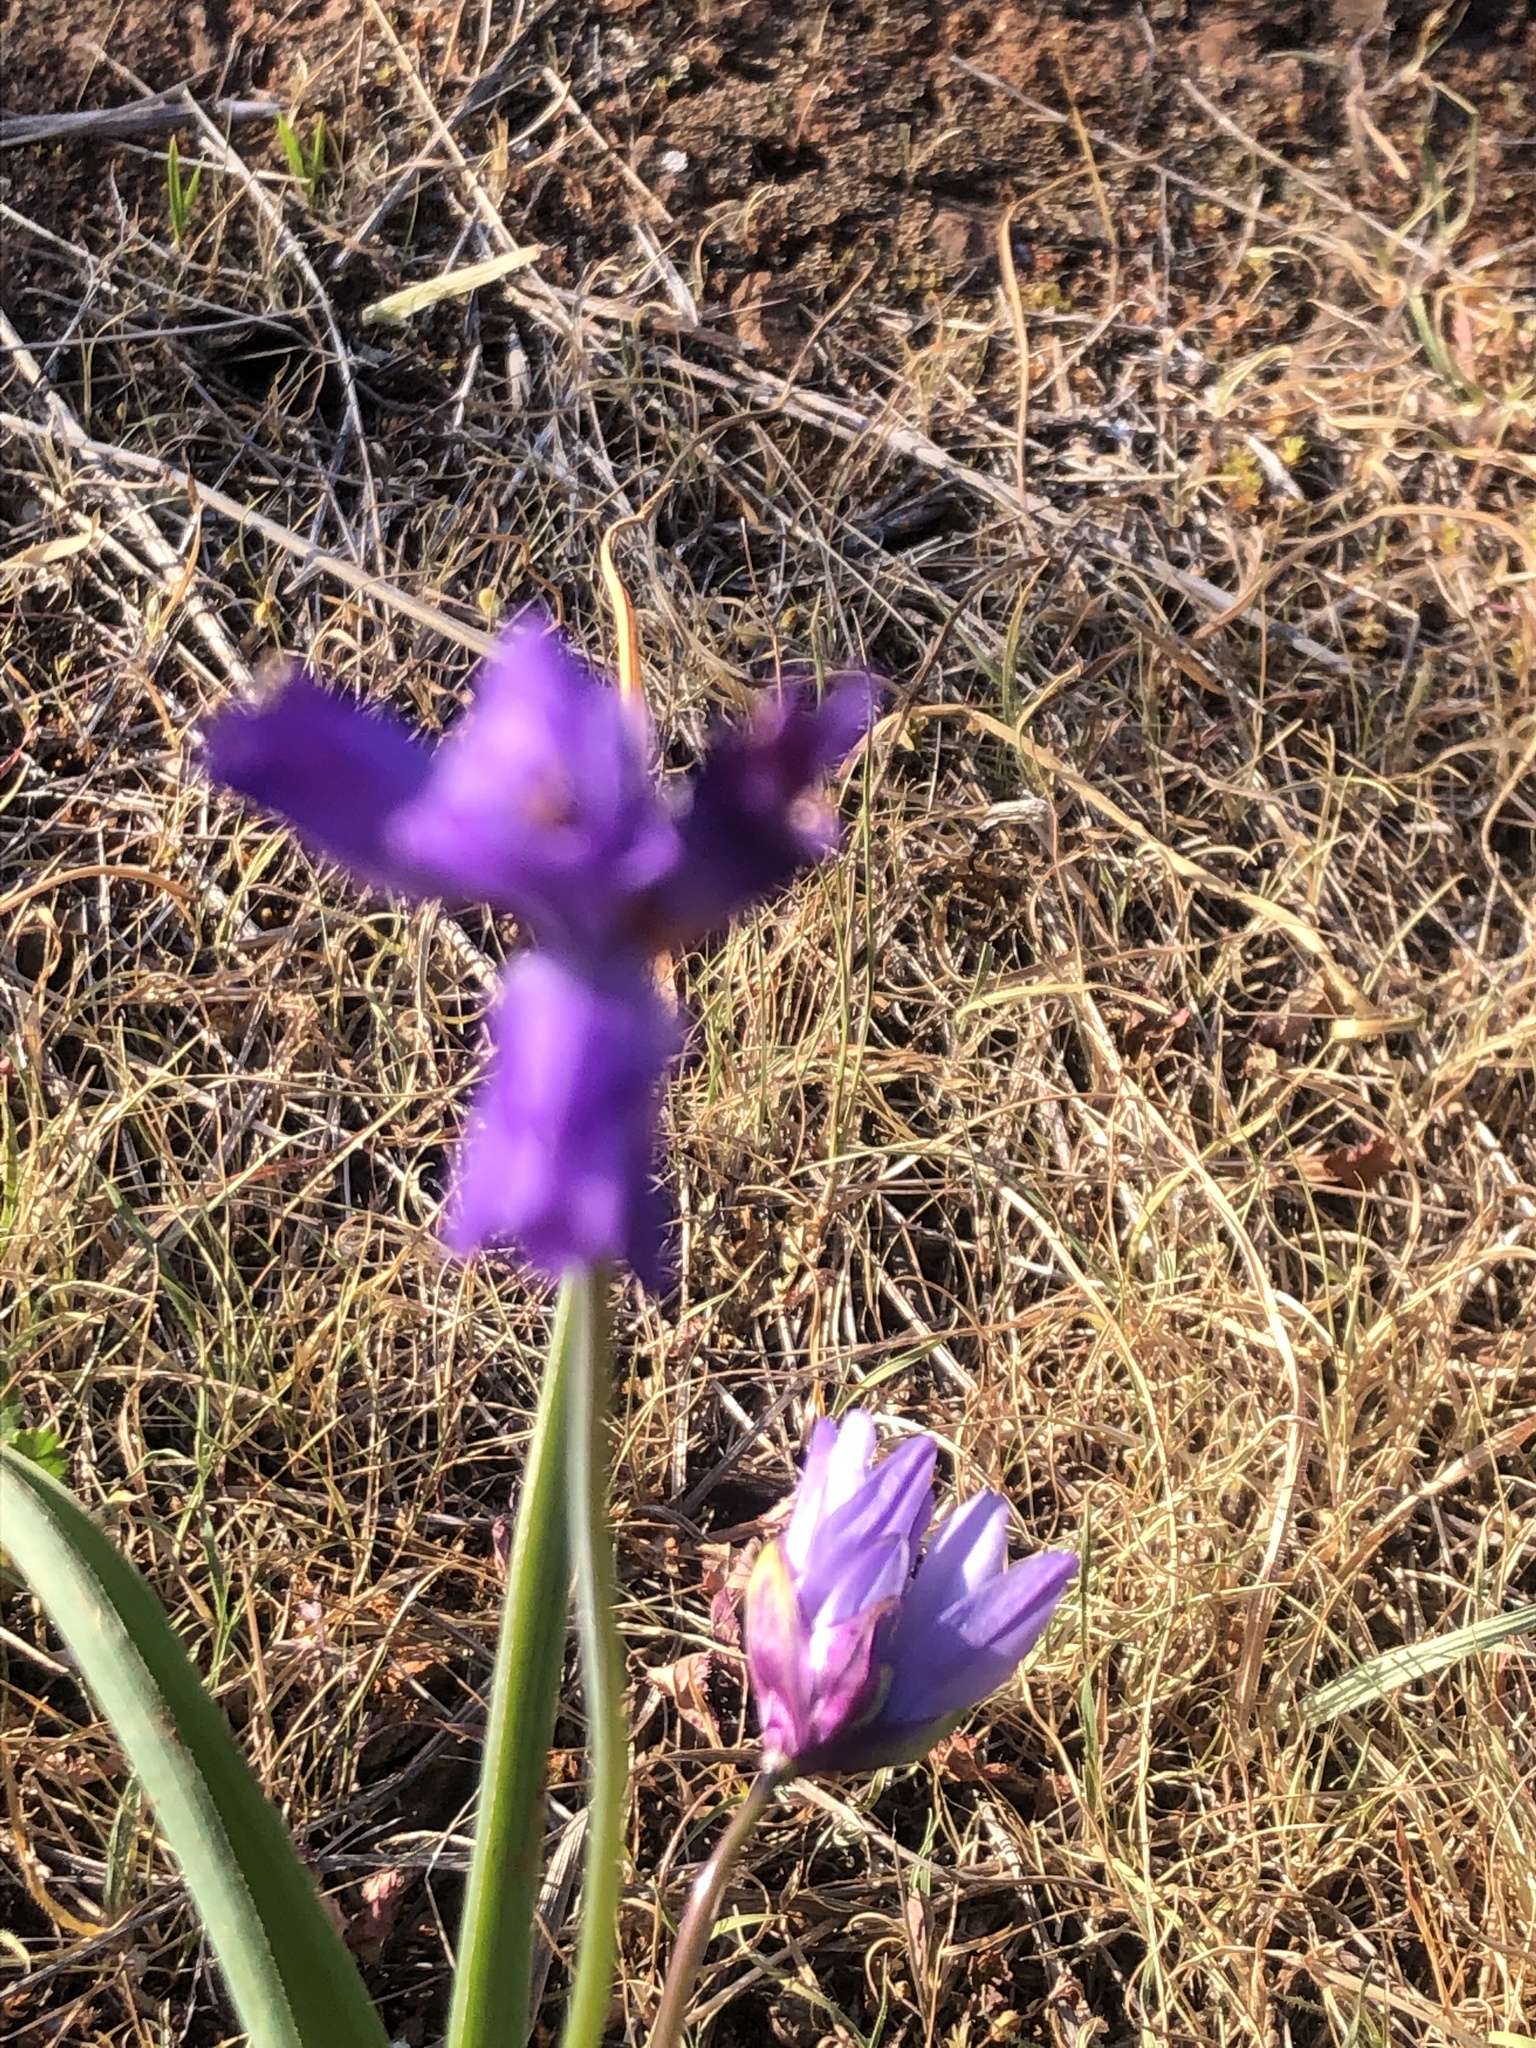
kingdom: Plantae
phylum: Tracheophyta
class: Liliopsida
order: Asparagales
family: Asparagaceae
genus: Dipterostemon
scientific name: Dipterostemon capitatus
